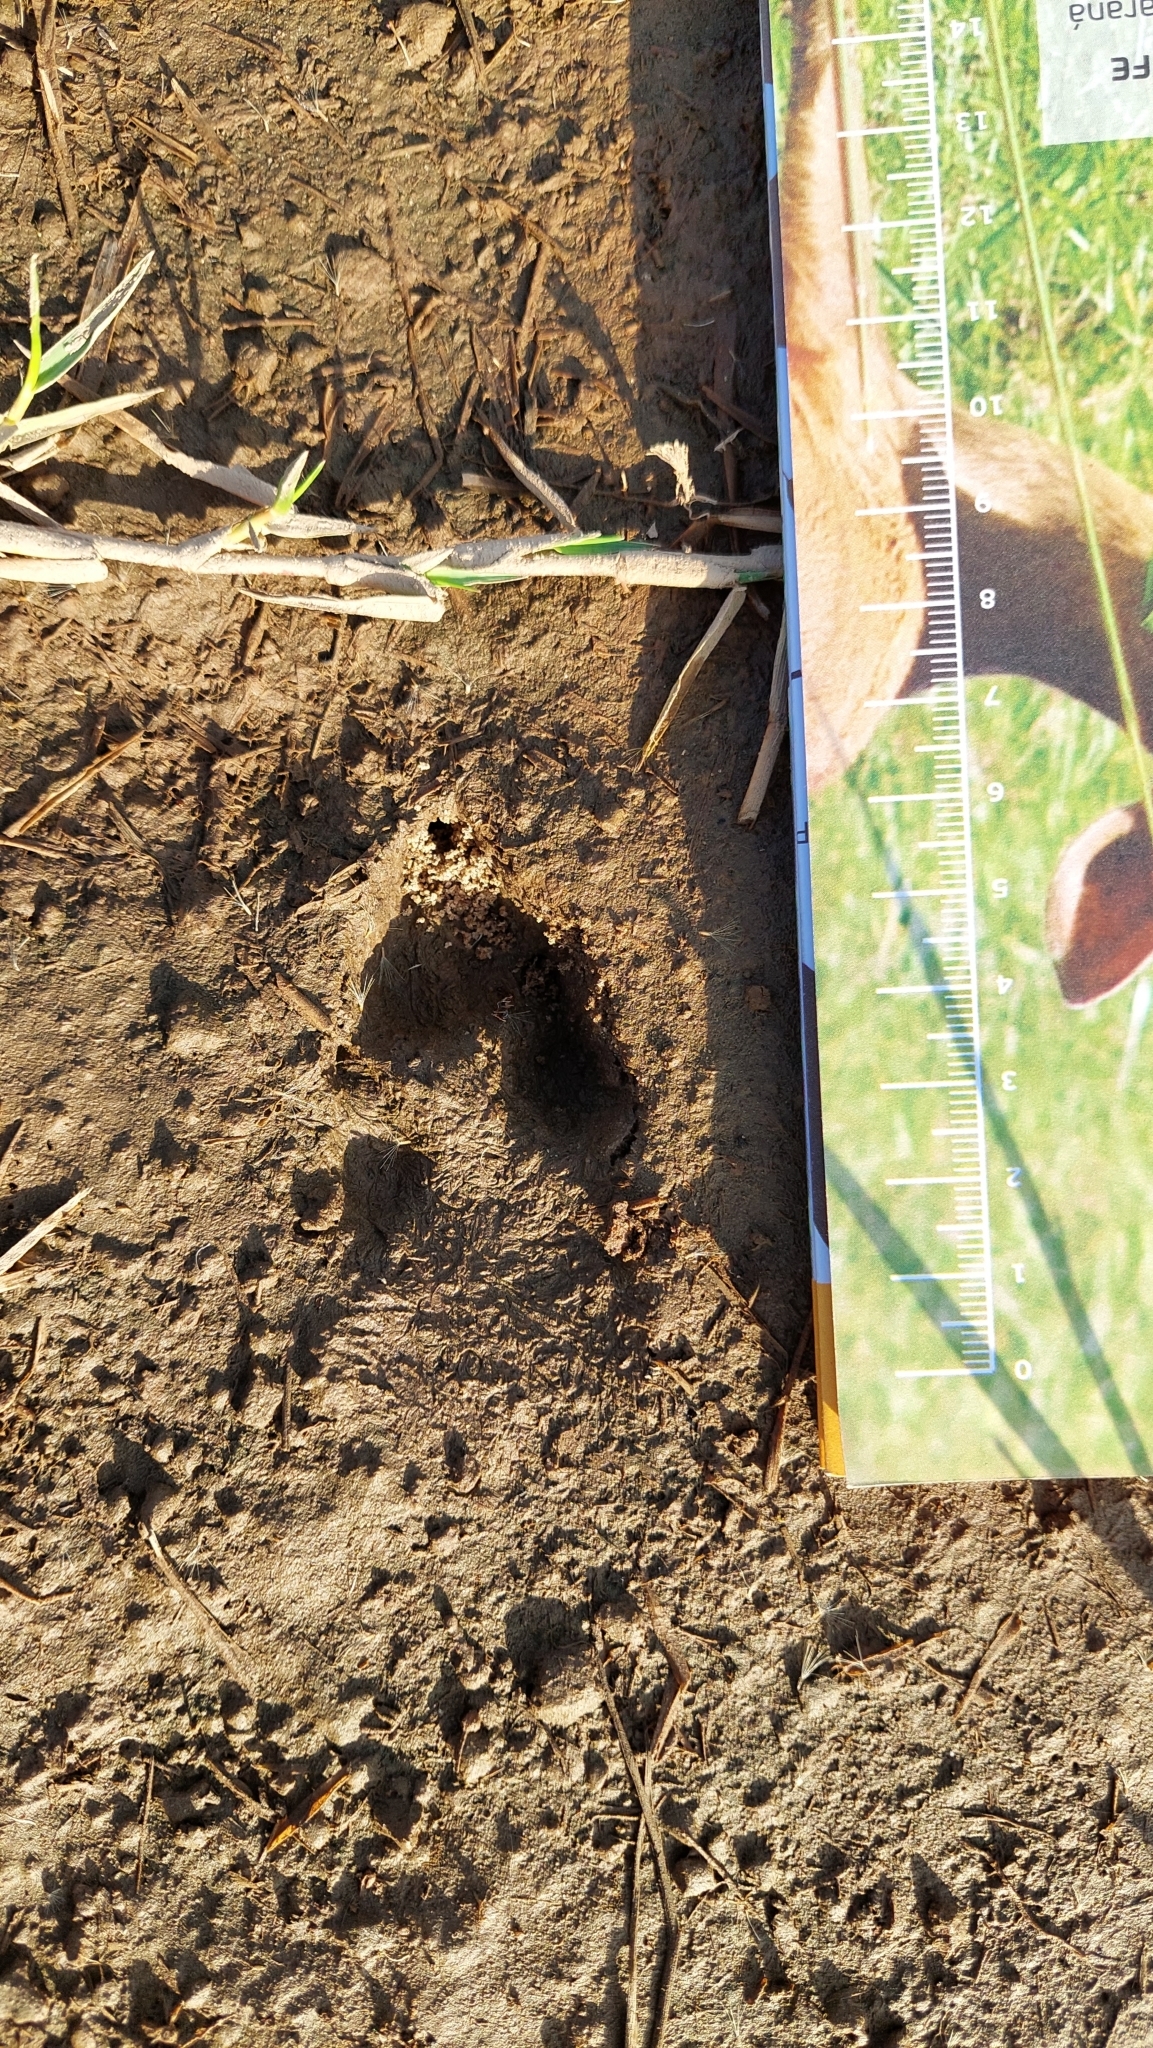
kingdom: Animalia
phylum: Chordata
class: Mammalia
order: Lagomorpha
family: Leporidae
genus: Lepus
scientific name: Lepus europaeus
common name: European hare
